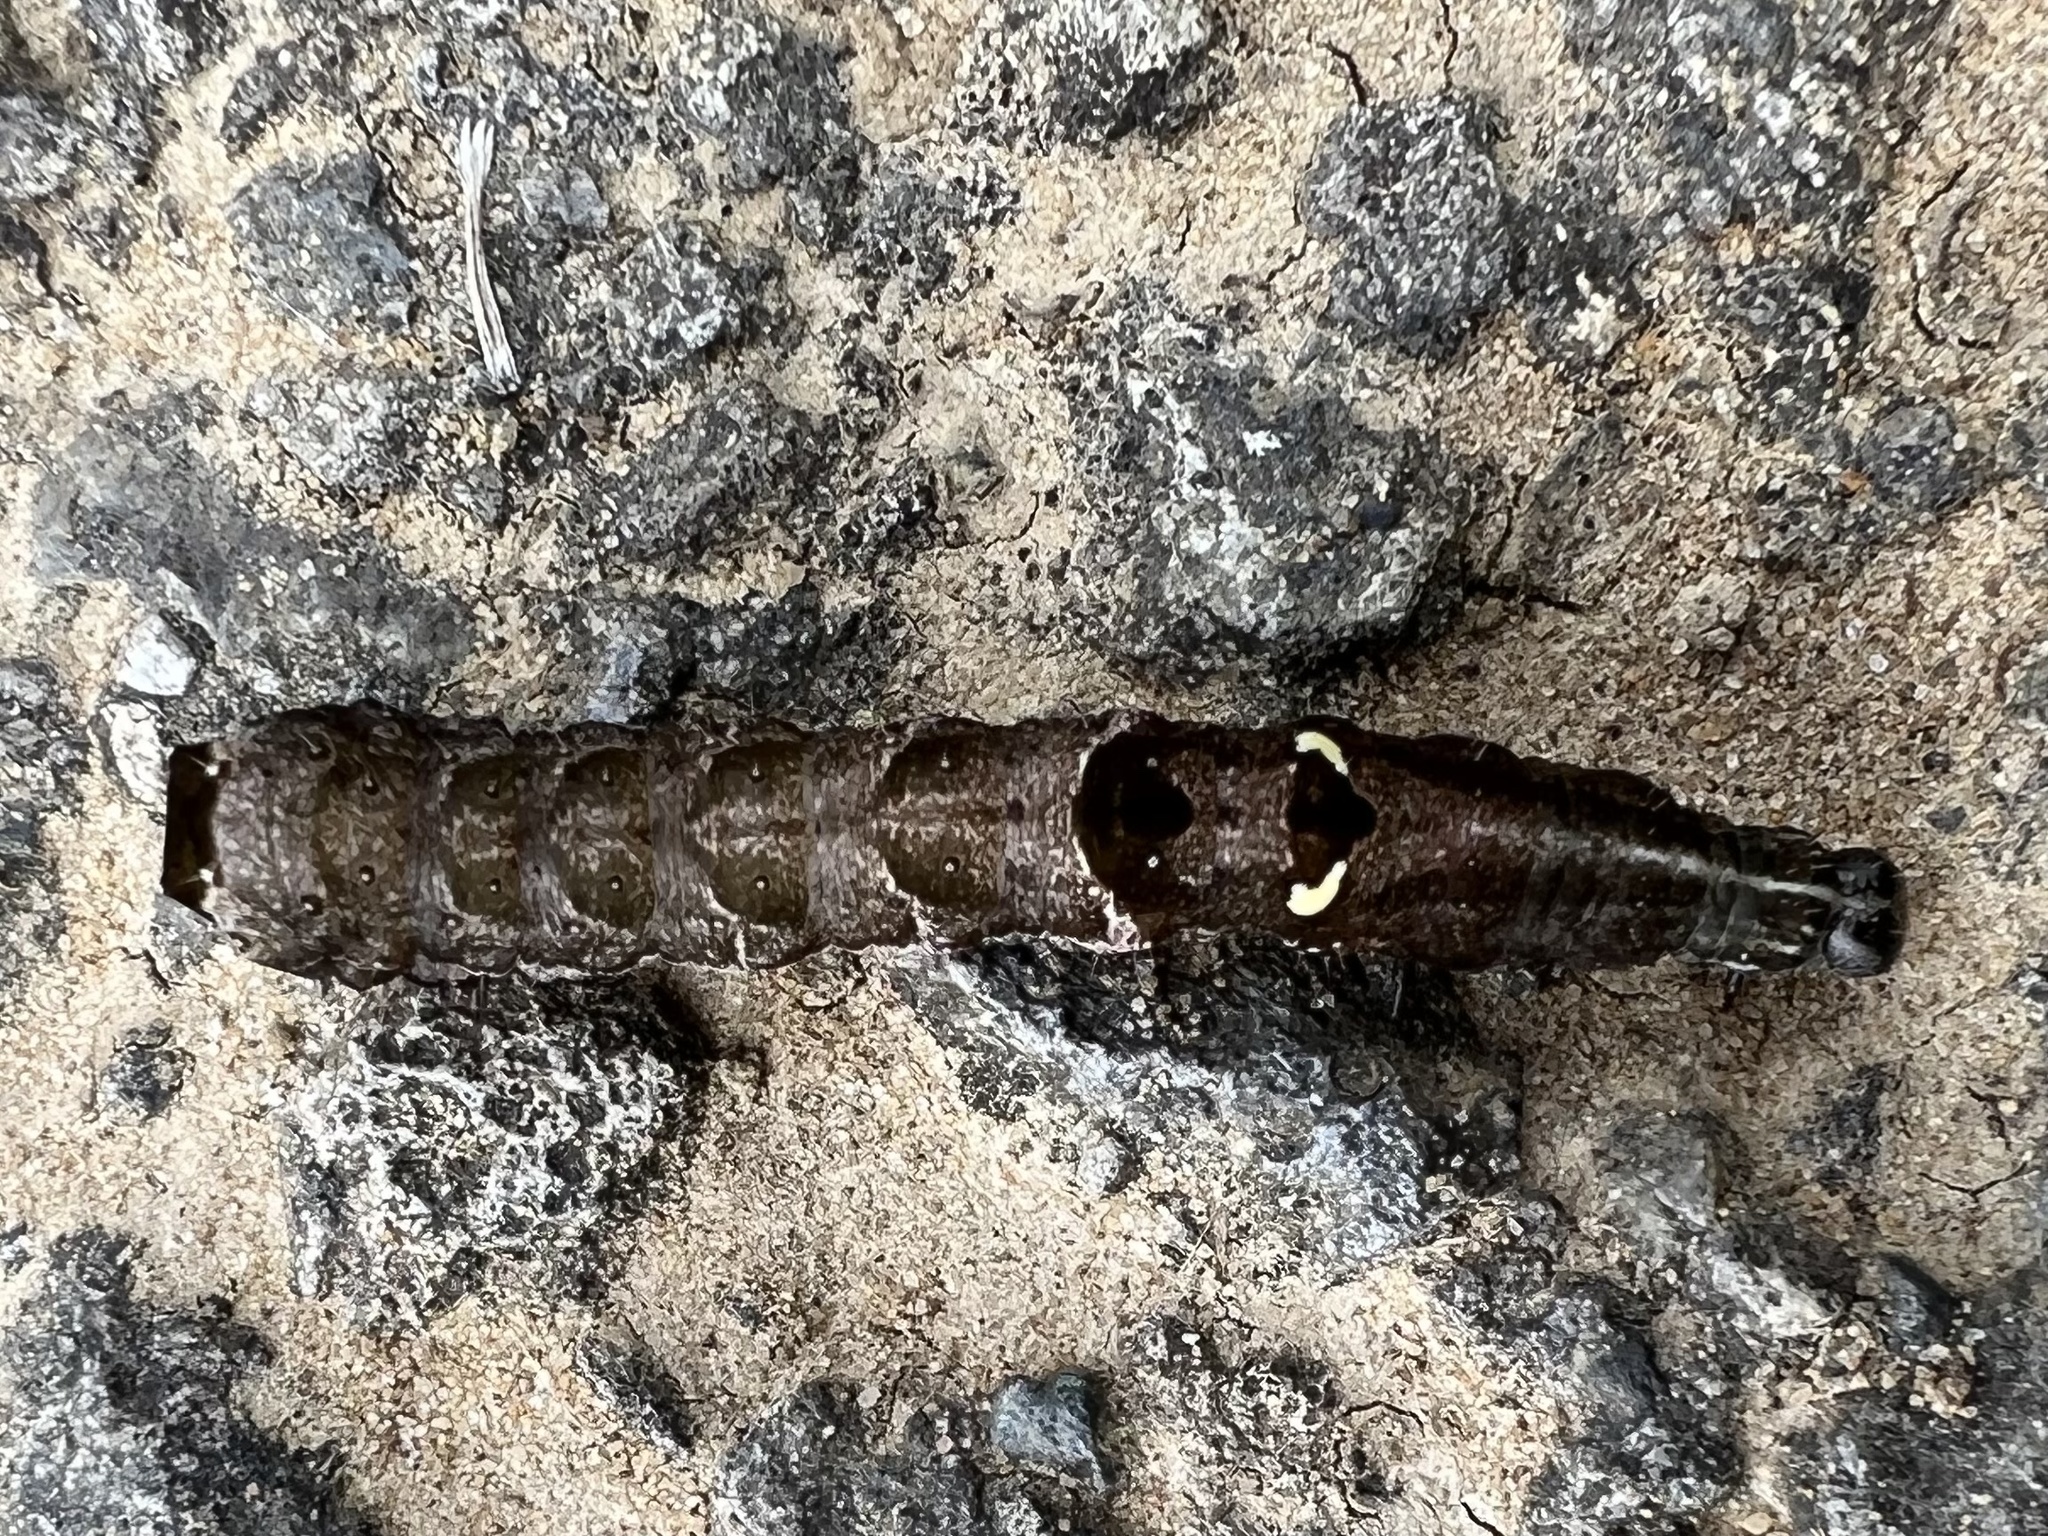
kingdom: Animalia
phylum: Arthropoda
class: Insecta
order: Lepidoptera
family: Noctuidae
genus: Abrostola
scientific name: Abrostola triplasia
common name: Dark spectacle
